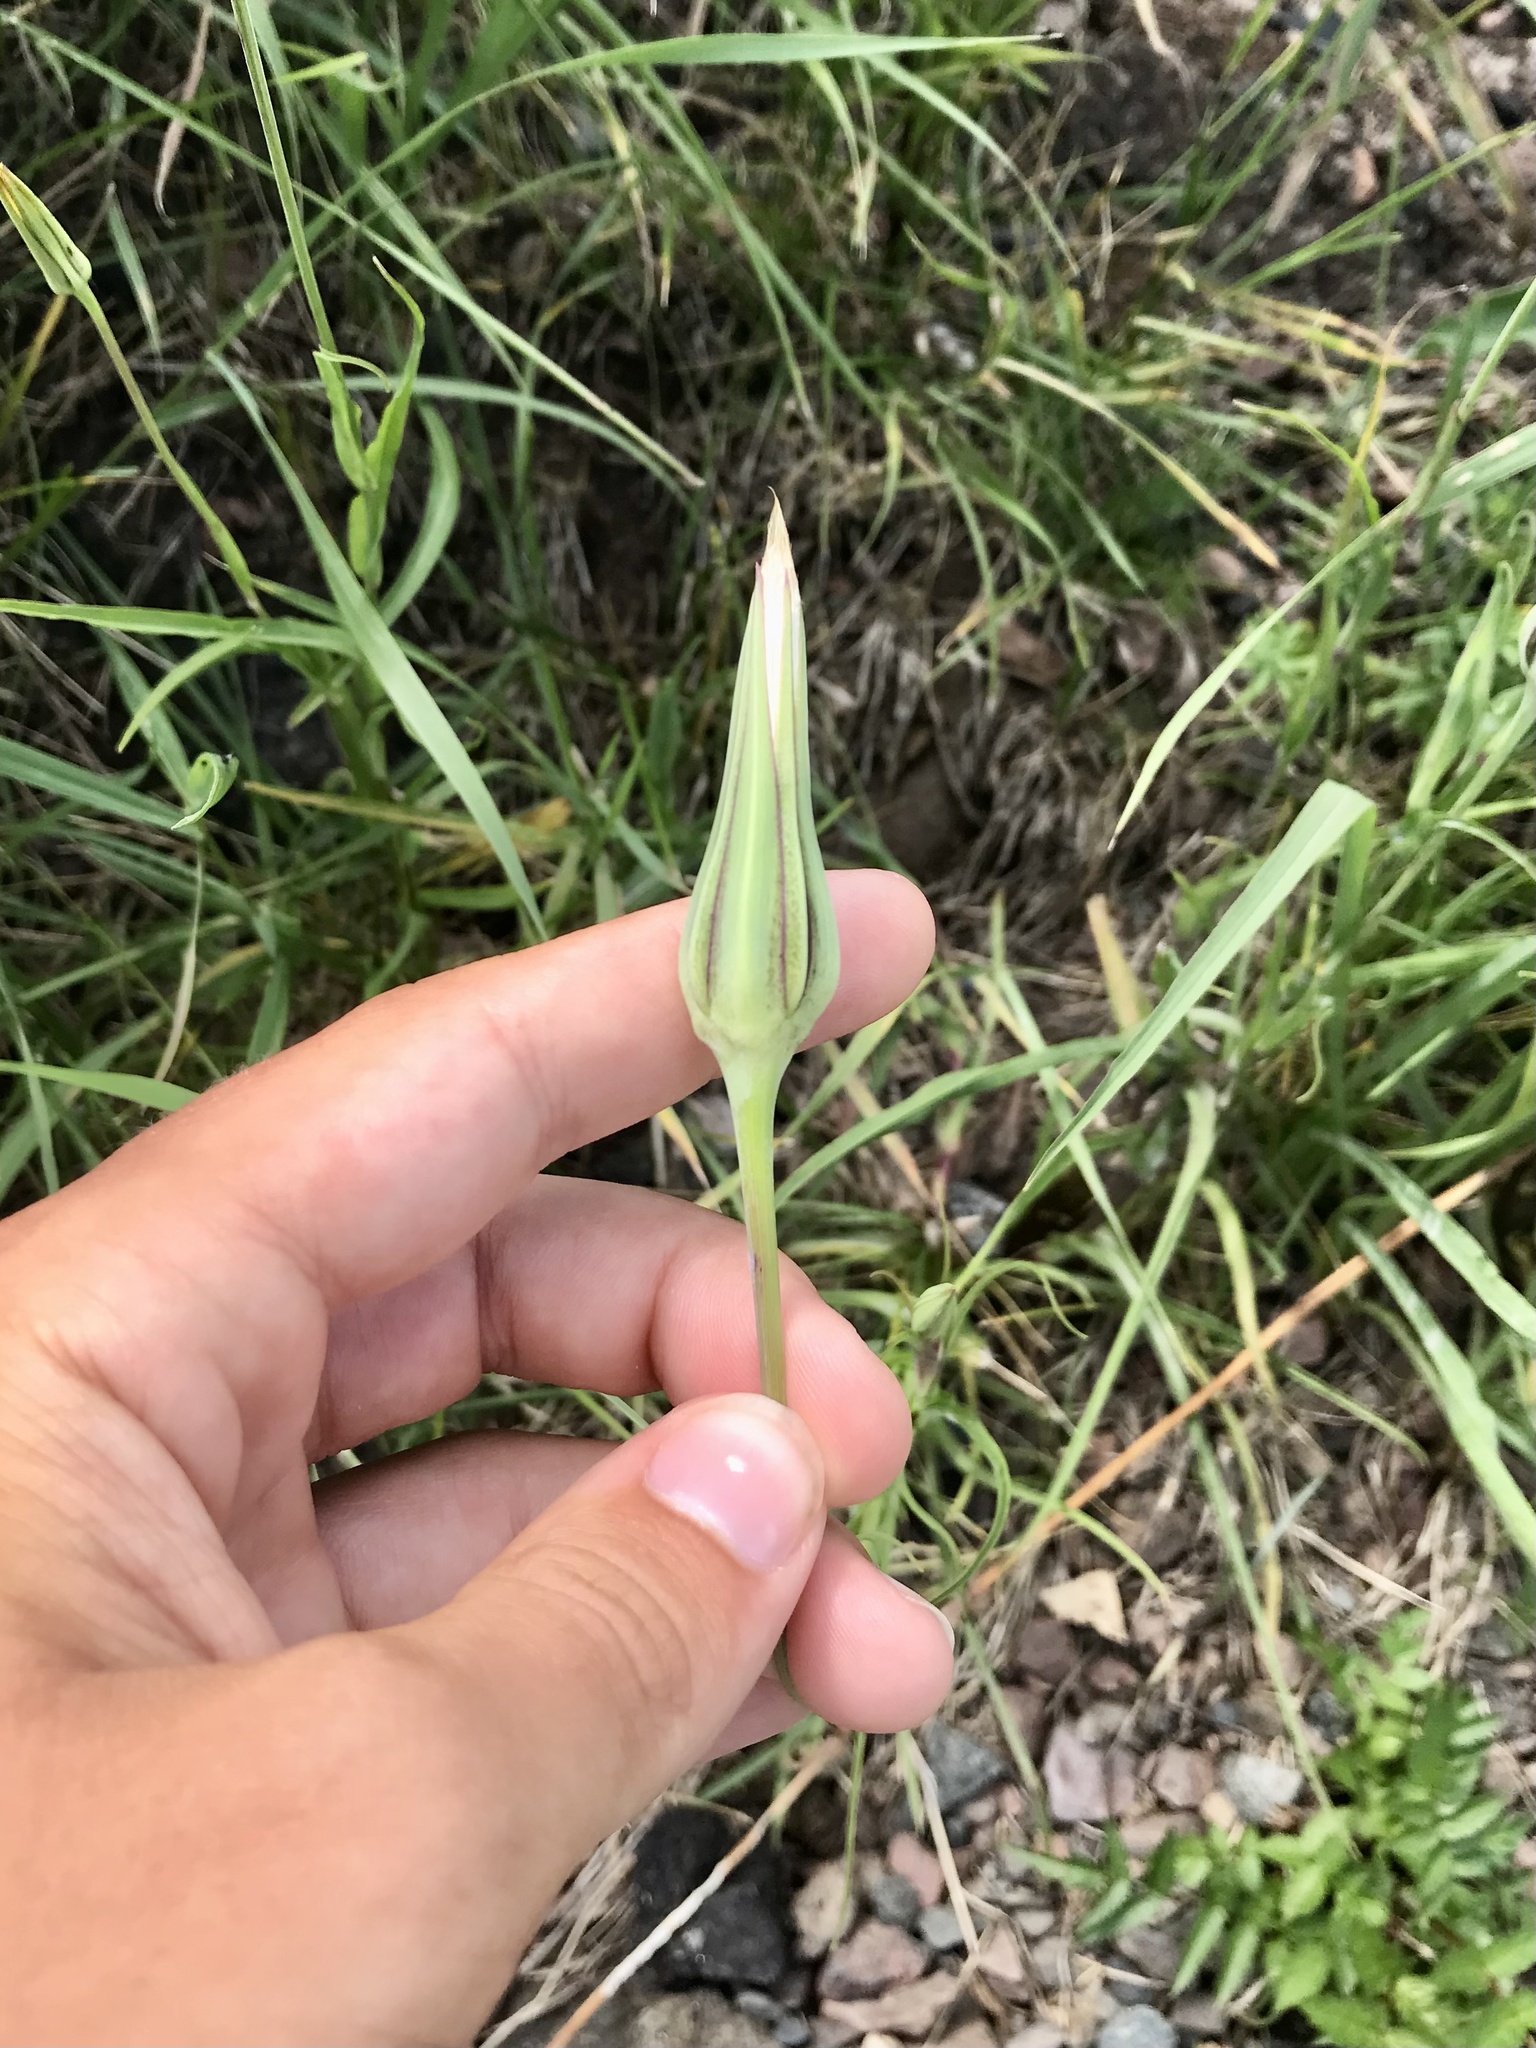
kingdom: Plantae
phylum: Tracheophyta
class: Magnoliopsida
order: Asterales
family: Asteraceae
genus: Tragopogon
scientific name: Tragopogon pratensis
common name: Goat's-beard
